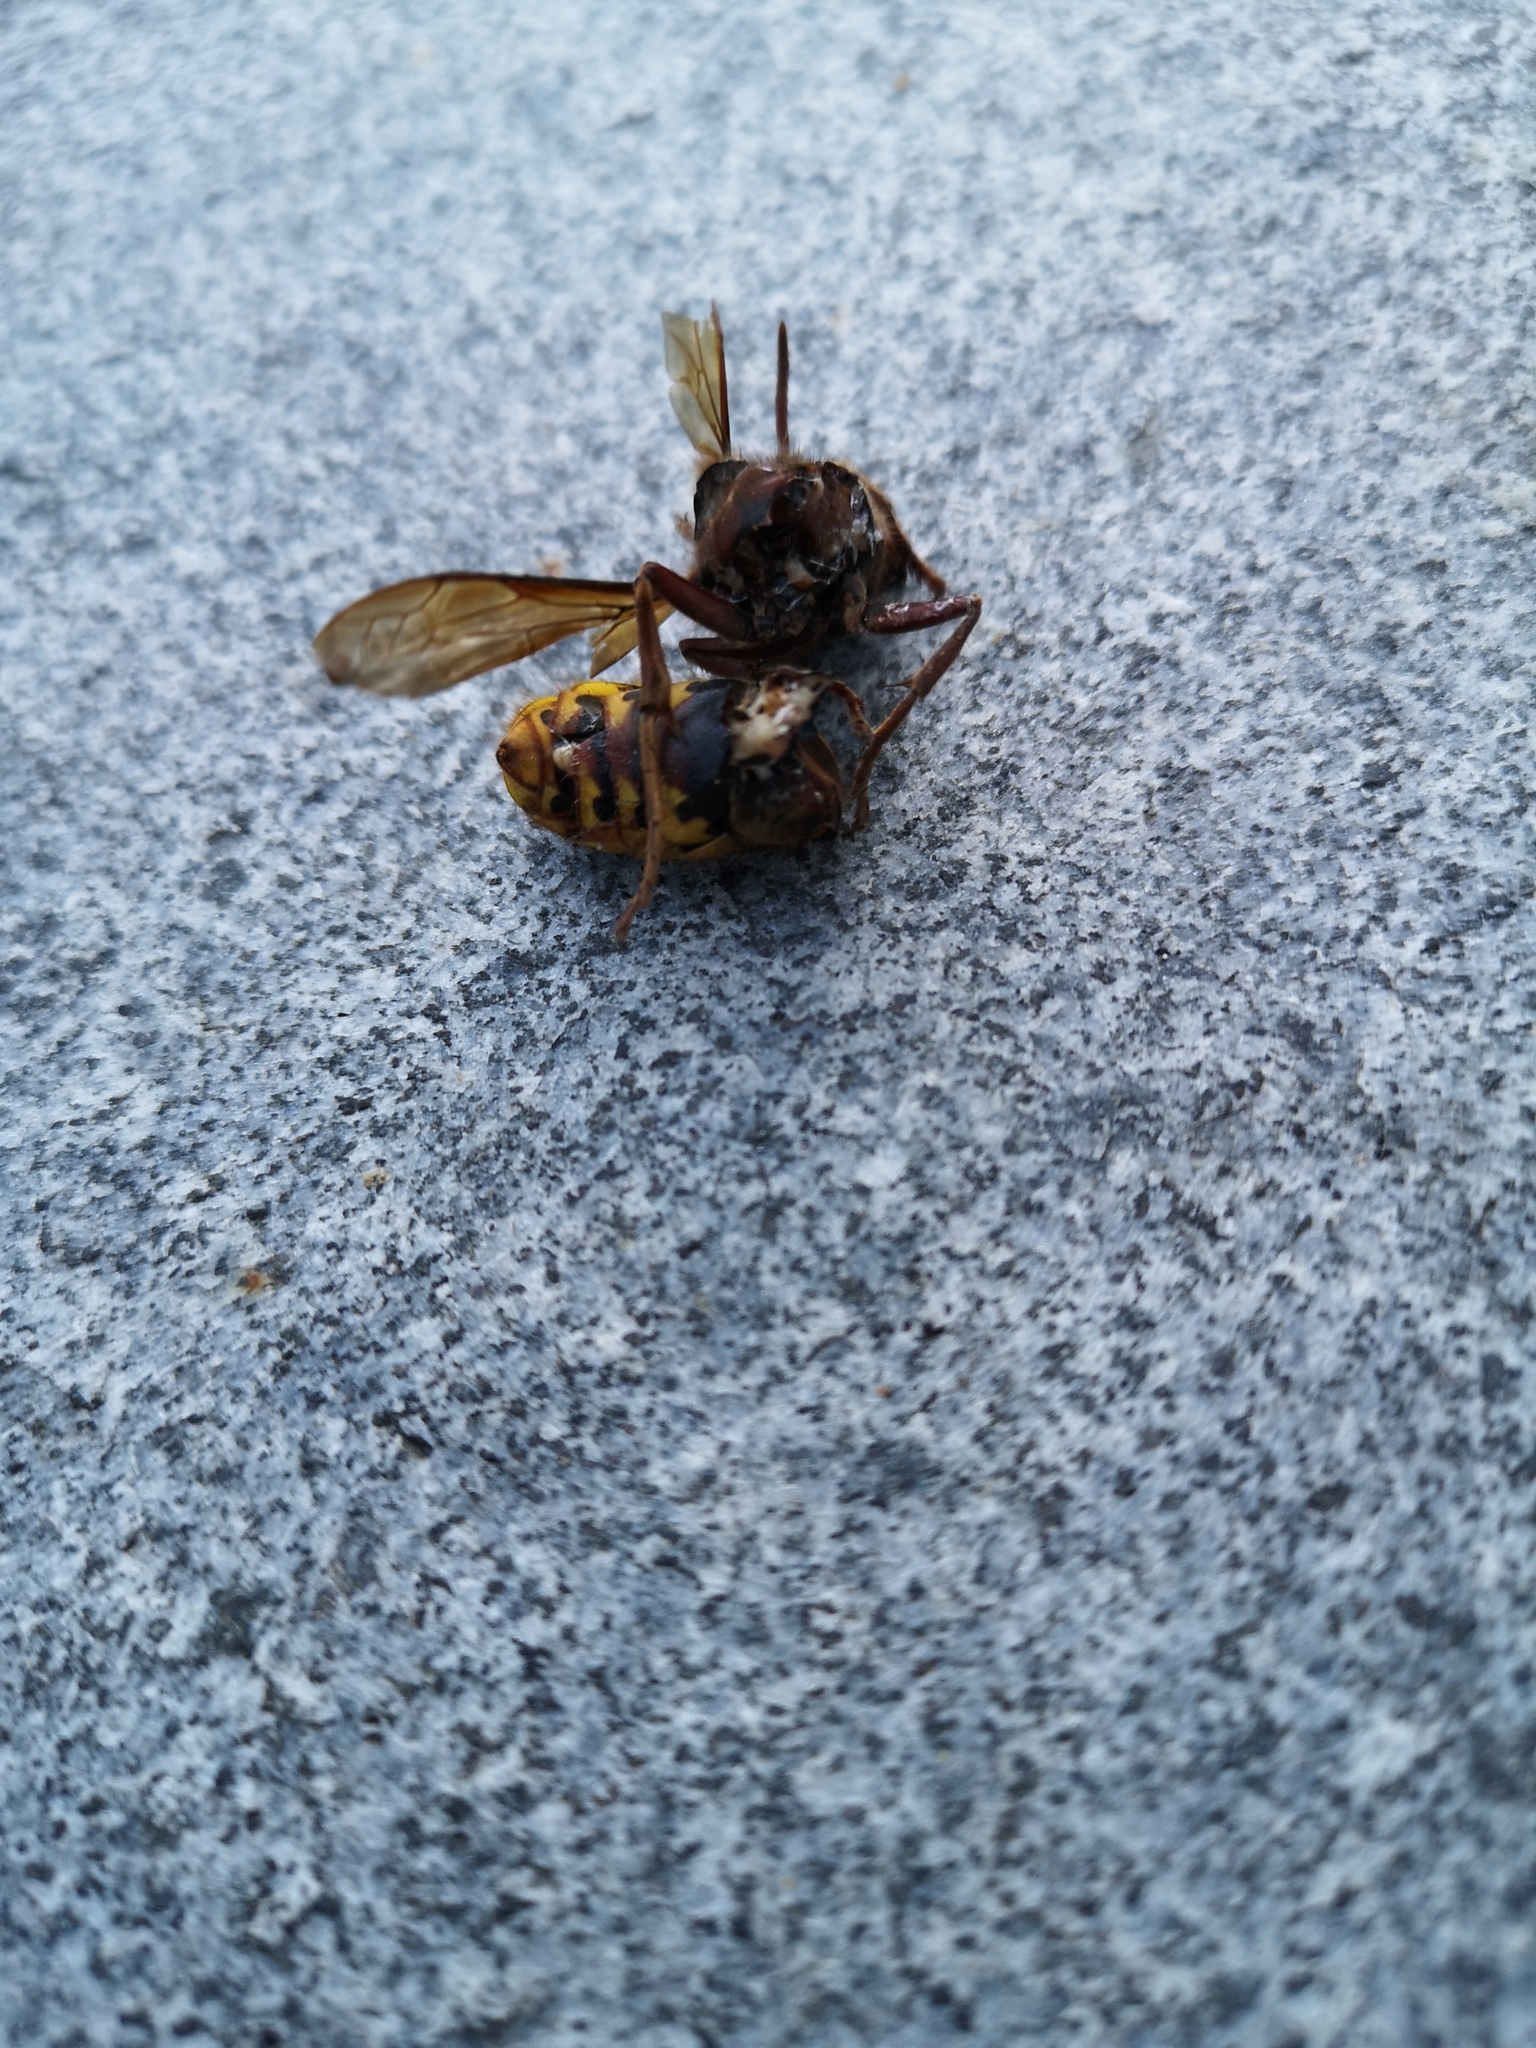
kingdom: Animalia
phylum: Arthropoda
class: Insecta
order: Hymenoptera
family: Vespidae
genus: Vespa
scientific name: Vespa crabro
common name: Hornet
